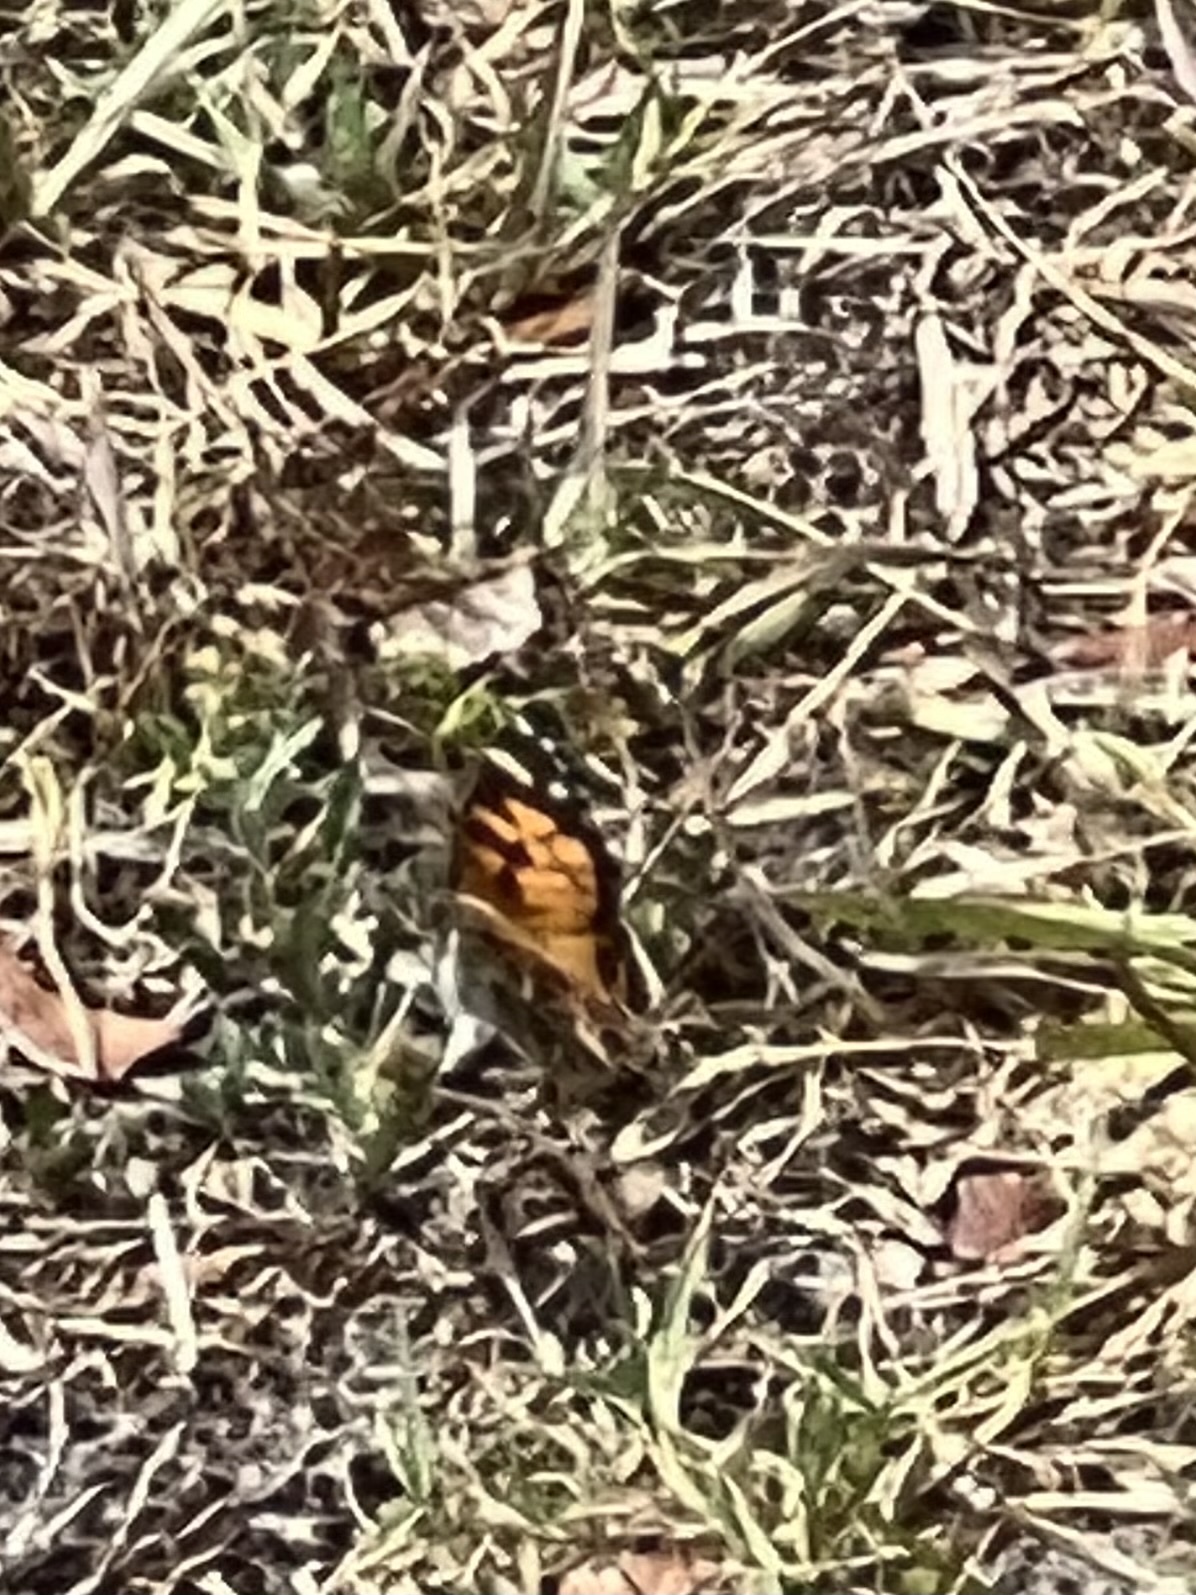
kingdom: Animalia
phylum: Arthropoda
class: Insecta
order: Lepidoptera
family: Nymphalidae
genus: Vanessa
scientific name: Vanessa virginiensis
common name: American lady
